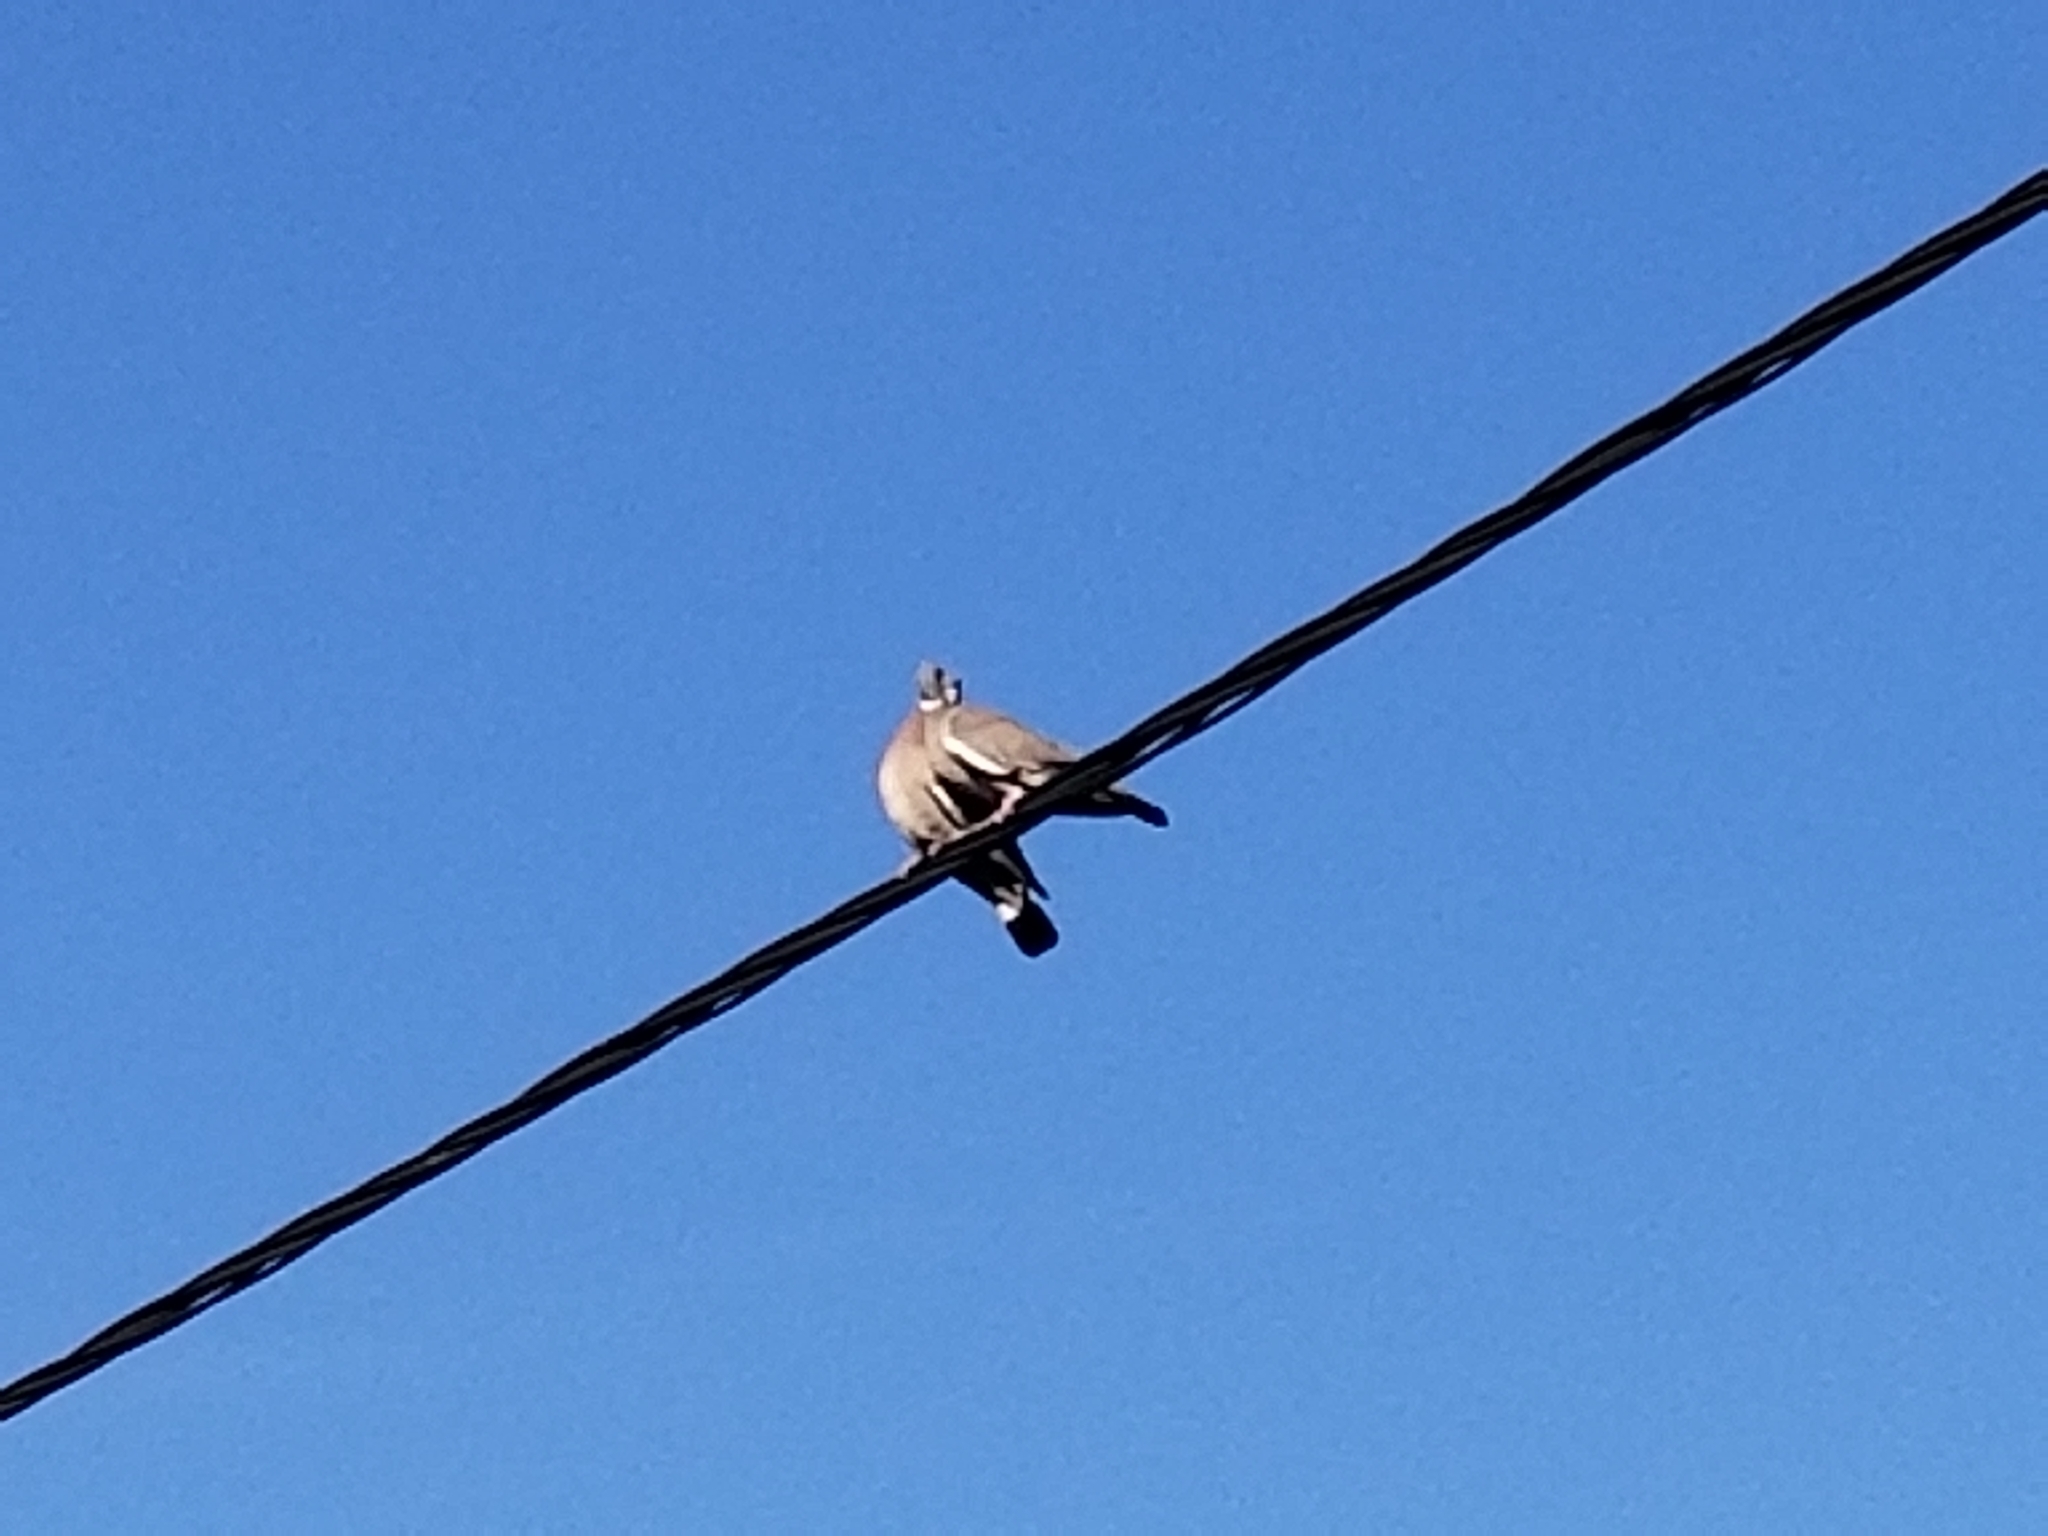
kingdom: Animalia
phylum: Chordata
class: Aves
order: Columbiformes
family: Columbidae
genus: Columba
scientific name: Columba palumbus
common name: Common wood pigeon
